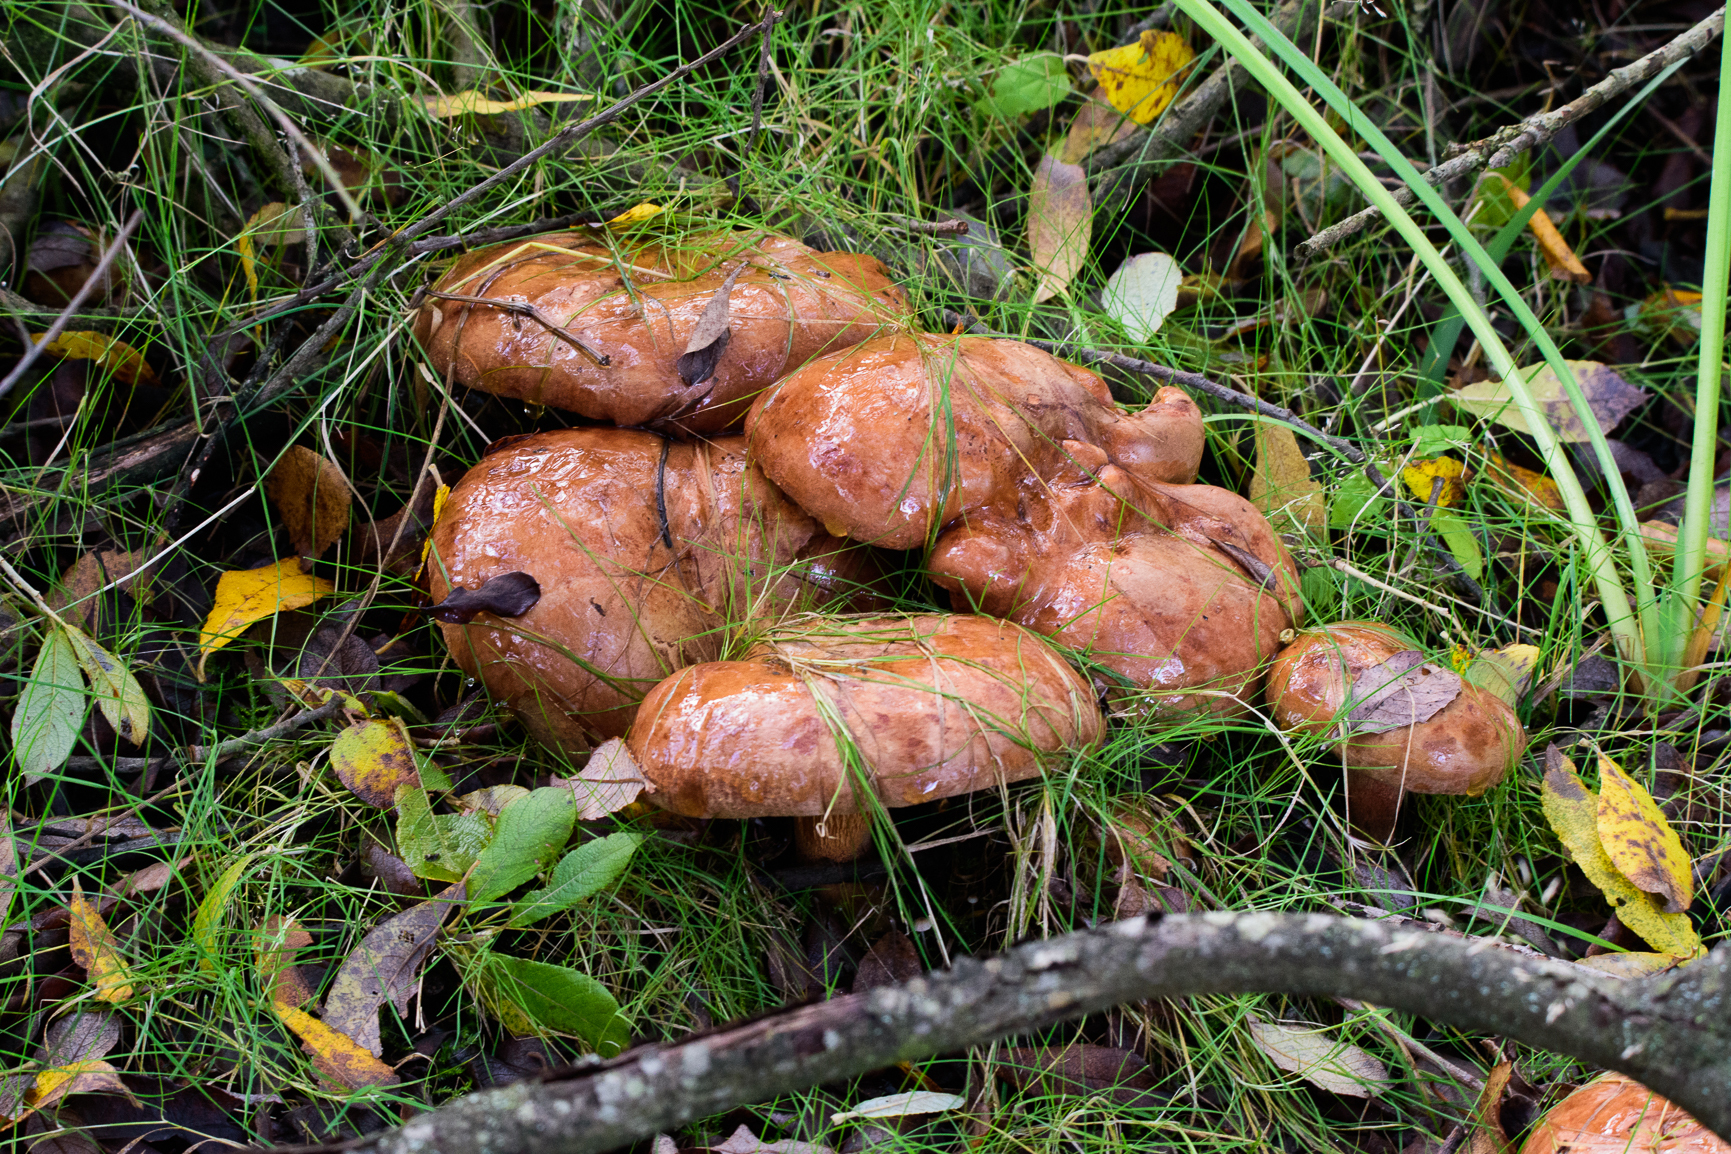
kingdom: Fungi
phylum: Basidiomycota
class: Agaricomycetes
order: Russulales
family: Russulaceae
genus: Lactarius
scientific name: Lactarius deliciosus
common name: Saffron milk-cap
